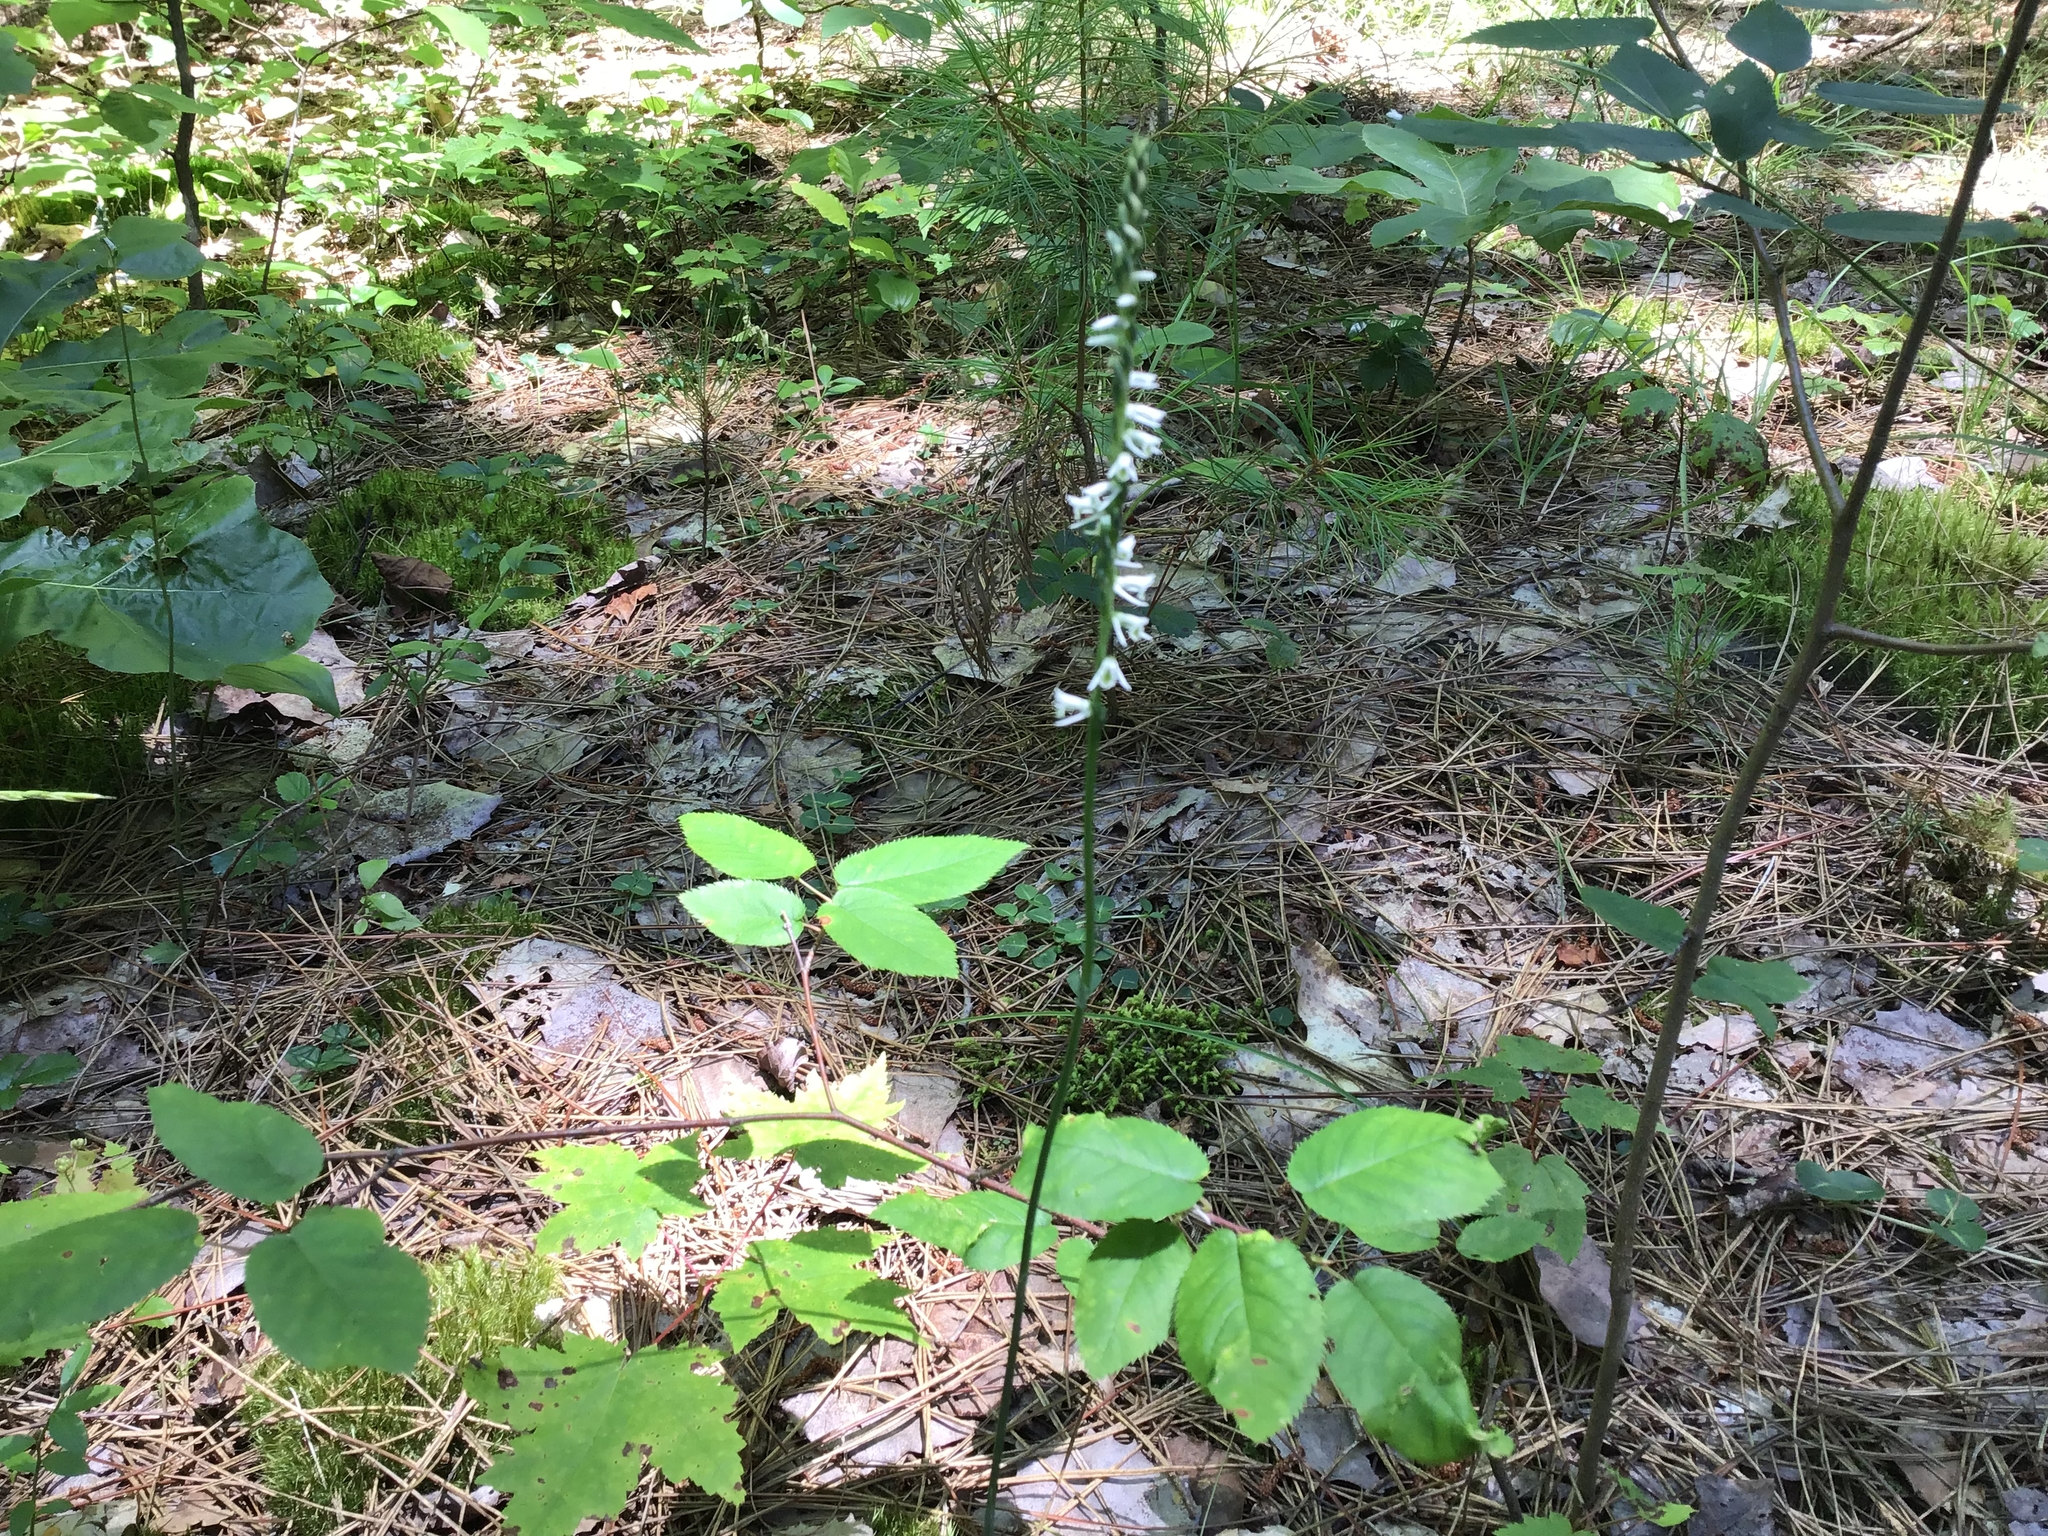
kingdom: Plantae
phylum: Tracheophyta
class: Liliopsida
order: Asparagales
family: Orchidaceae
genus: Spiranthes
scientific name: Spiranthes lacera
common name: Northern slender ladies'-tresses
